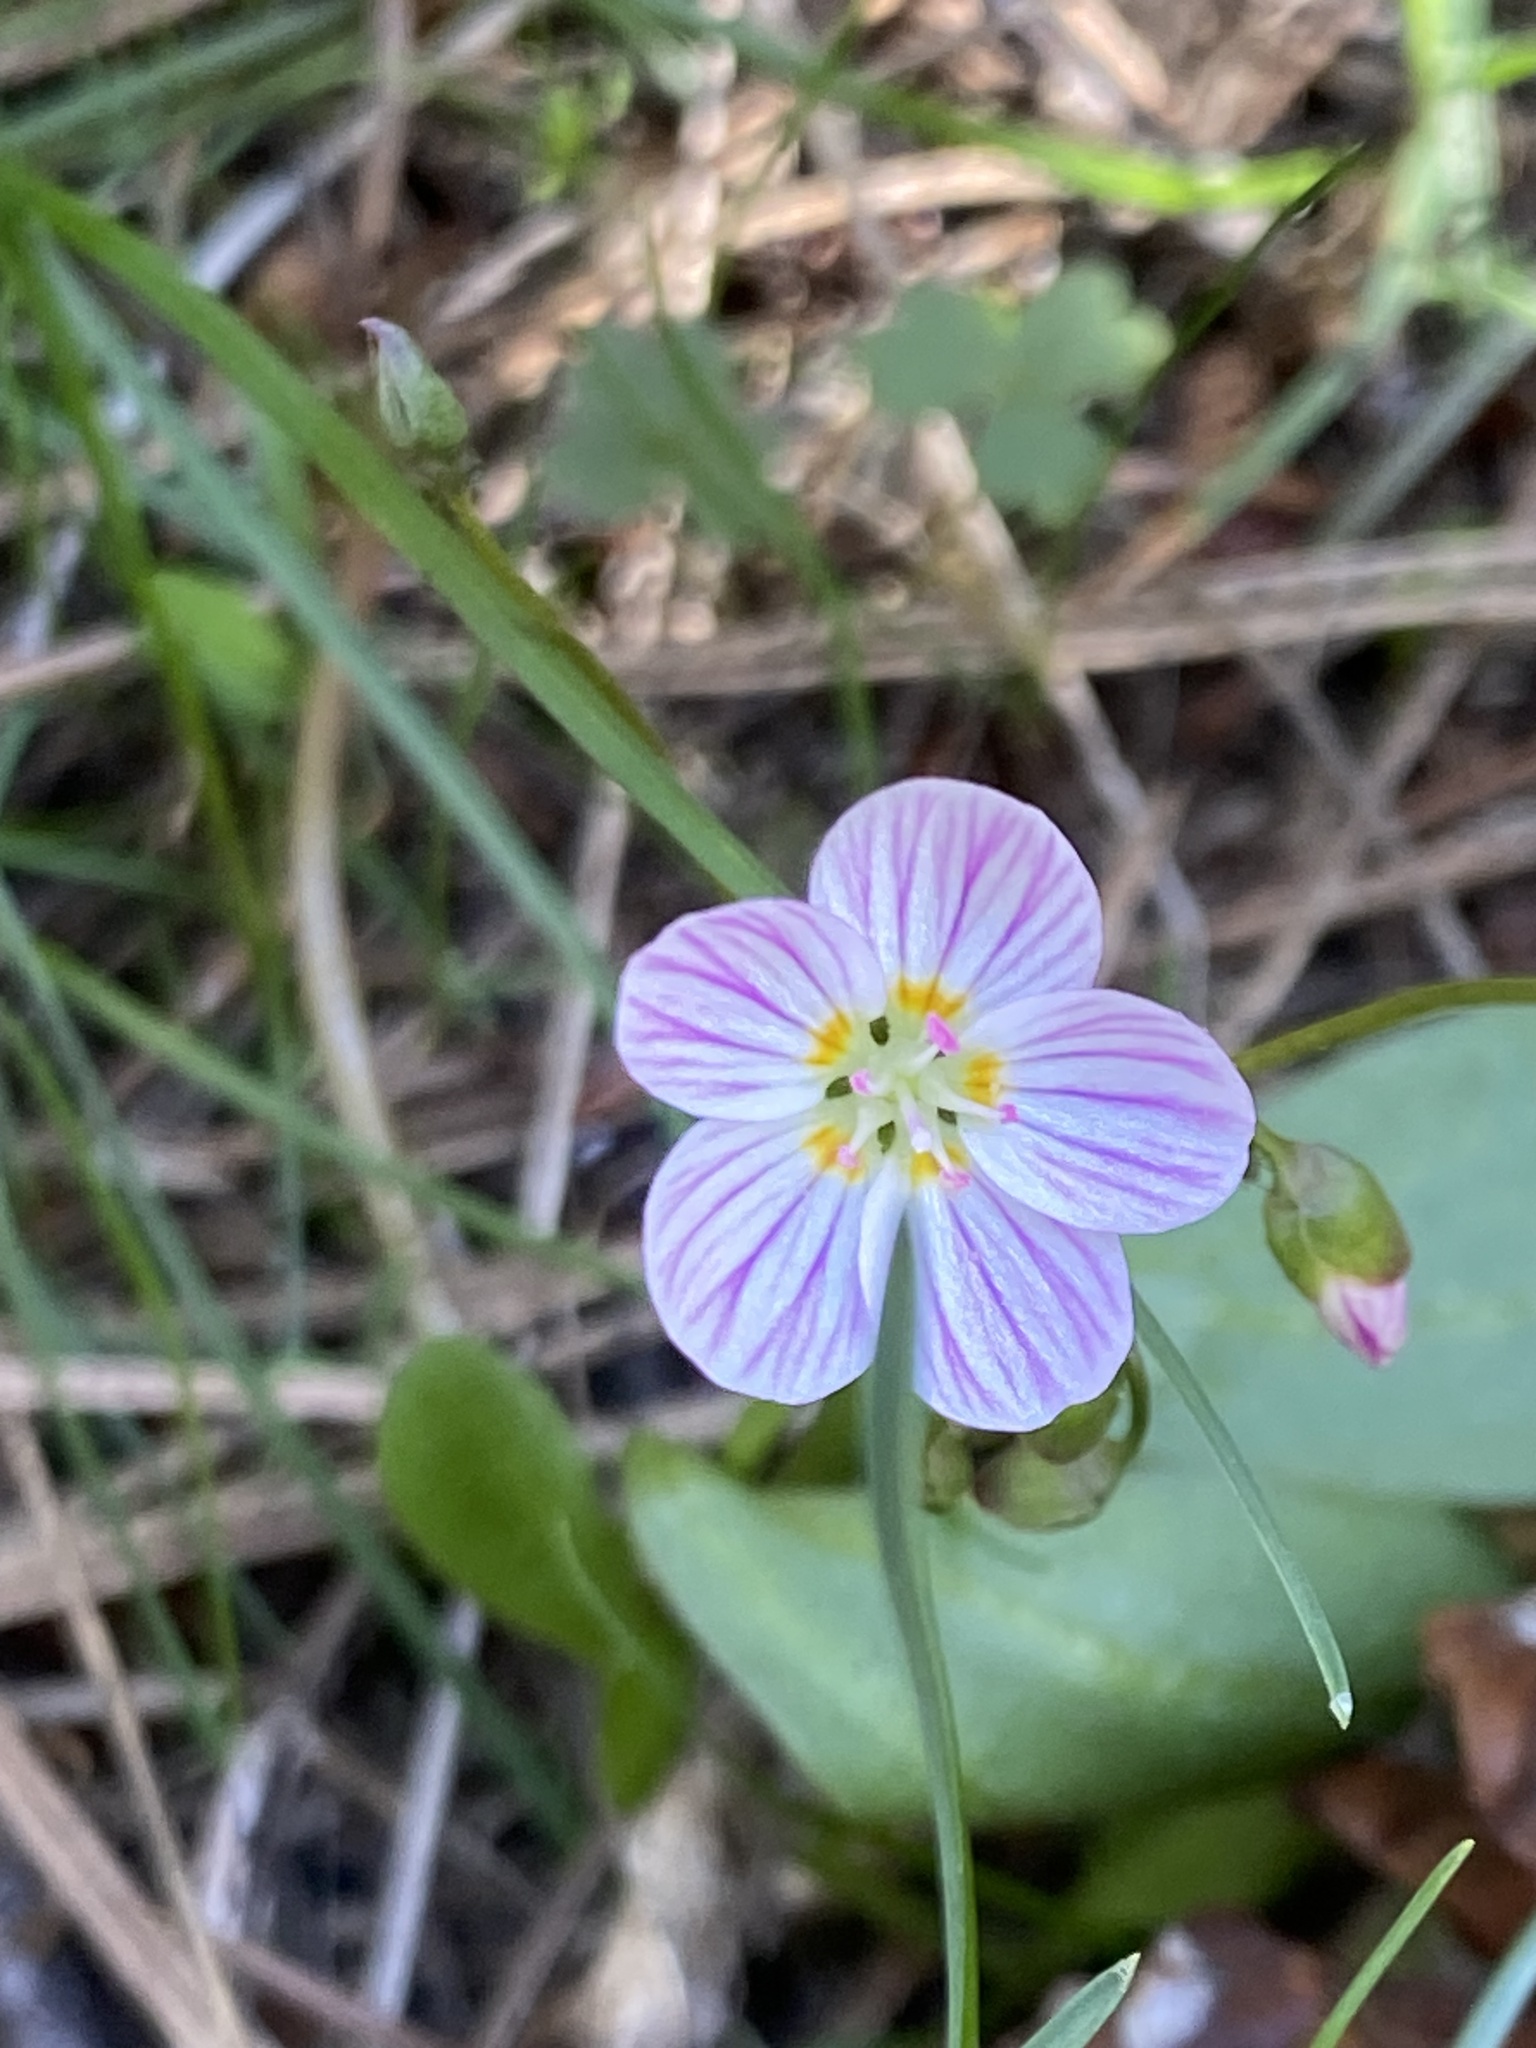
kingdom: Plantae
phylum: Tracheophyta
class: Magnoliopsida
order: Caryophyllales
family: Montiaceae
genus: Claytonia
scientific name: Claytonia lanceolata
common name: Western spring-beauty
